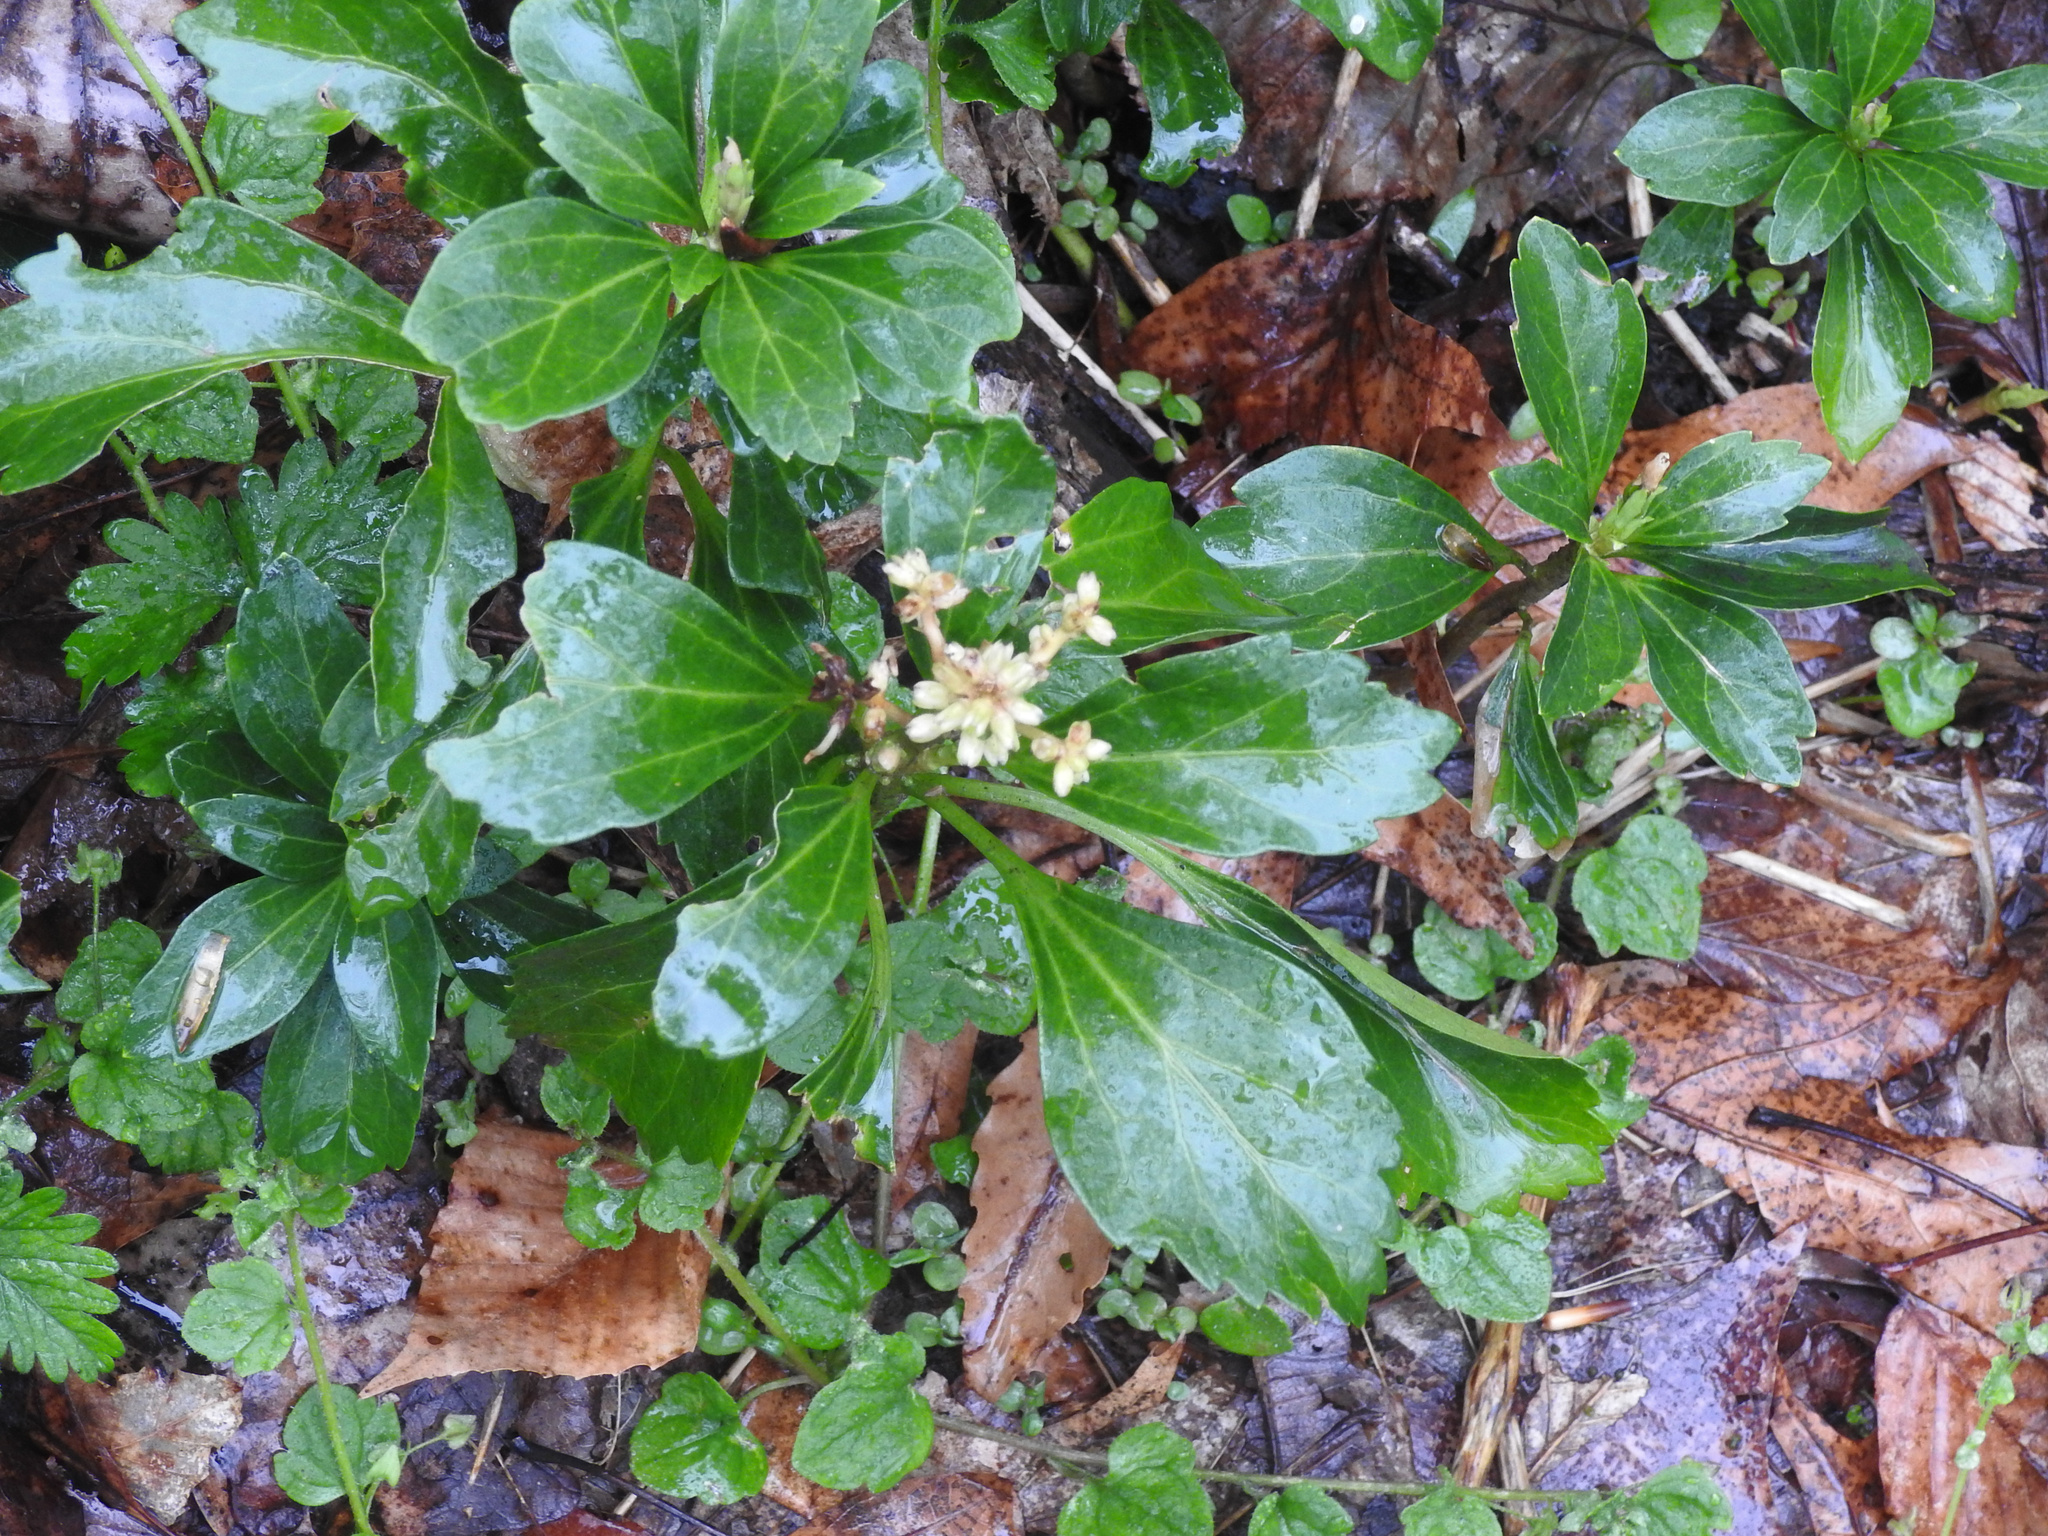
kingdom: Plantae
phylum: Tracheophyta
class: Magnoliopsida
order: Buxales
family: Buxaceae
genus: Pachysandra
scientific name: Pachysandra terminalis
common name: Japanese pachysandra
